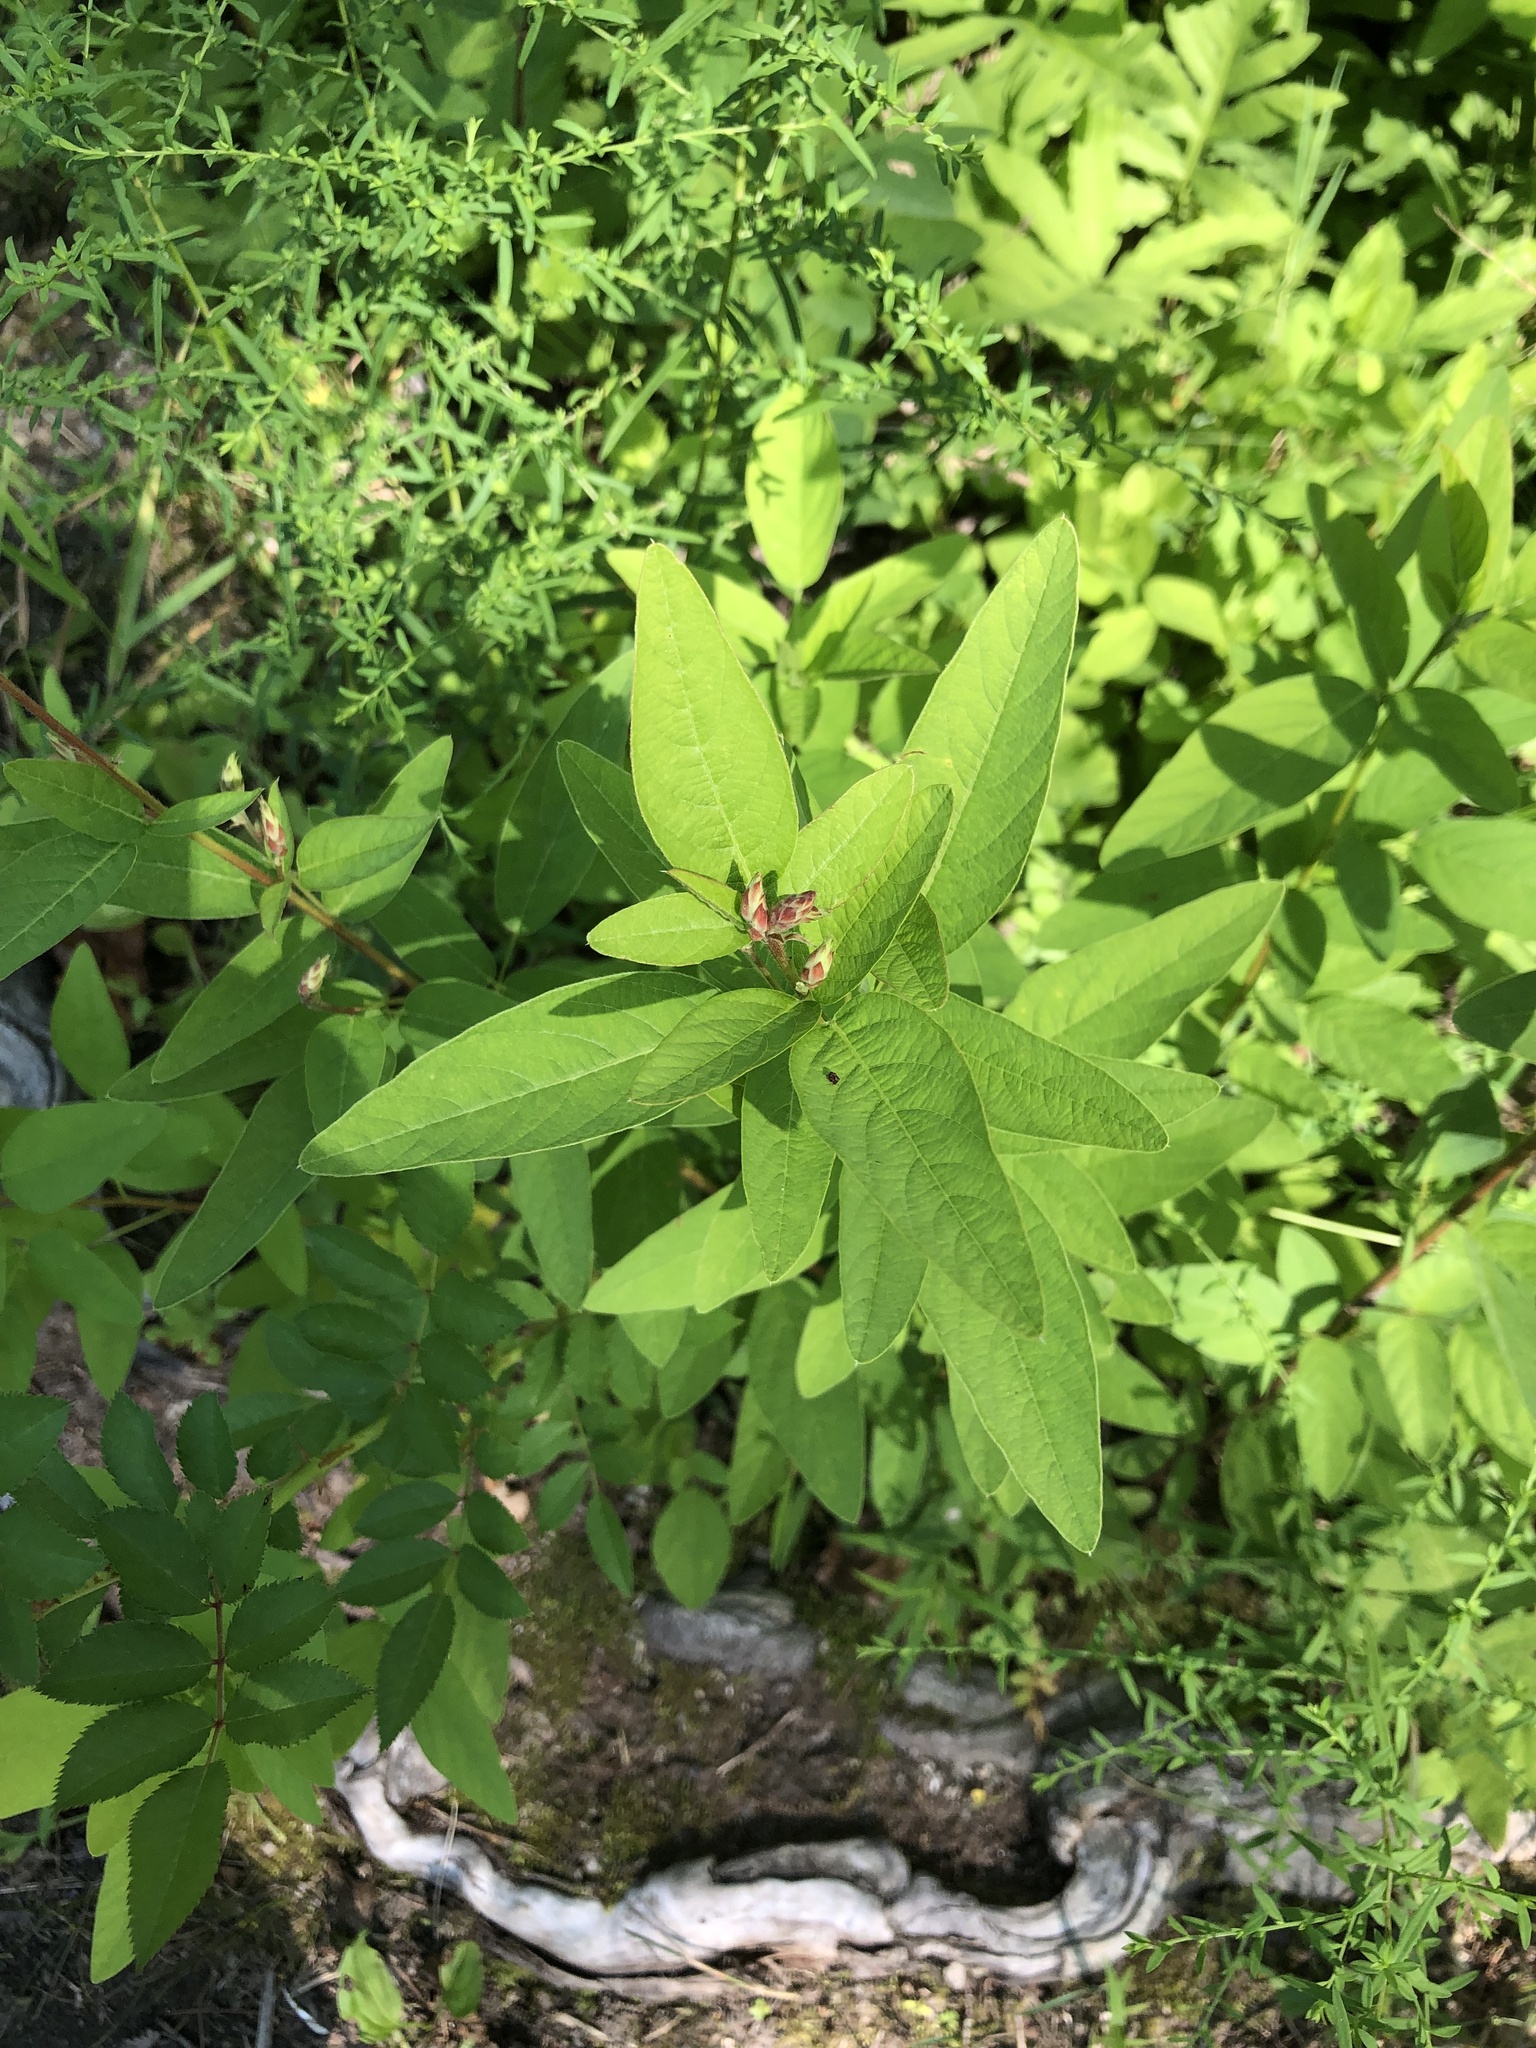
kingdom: Plantae
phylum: Tracheophyta
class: Magnoliopsida
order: Fabales
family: Fabaceae
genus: Desmodium
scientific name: Desmodium canadense
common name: Canada tick-trefoil
